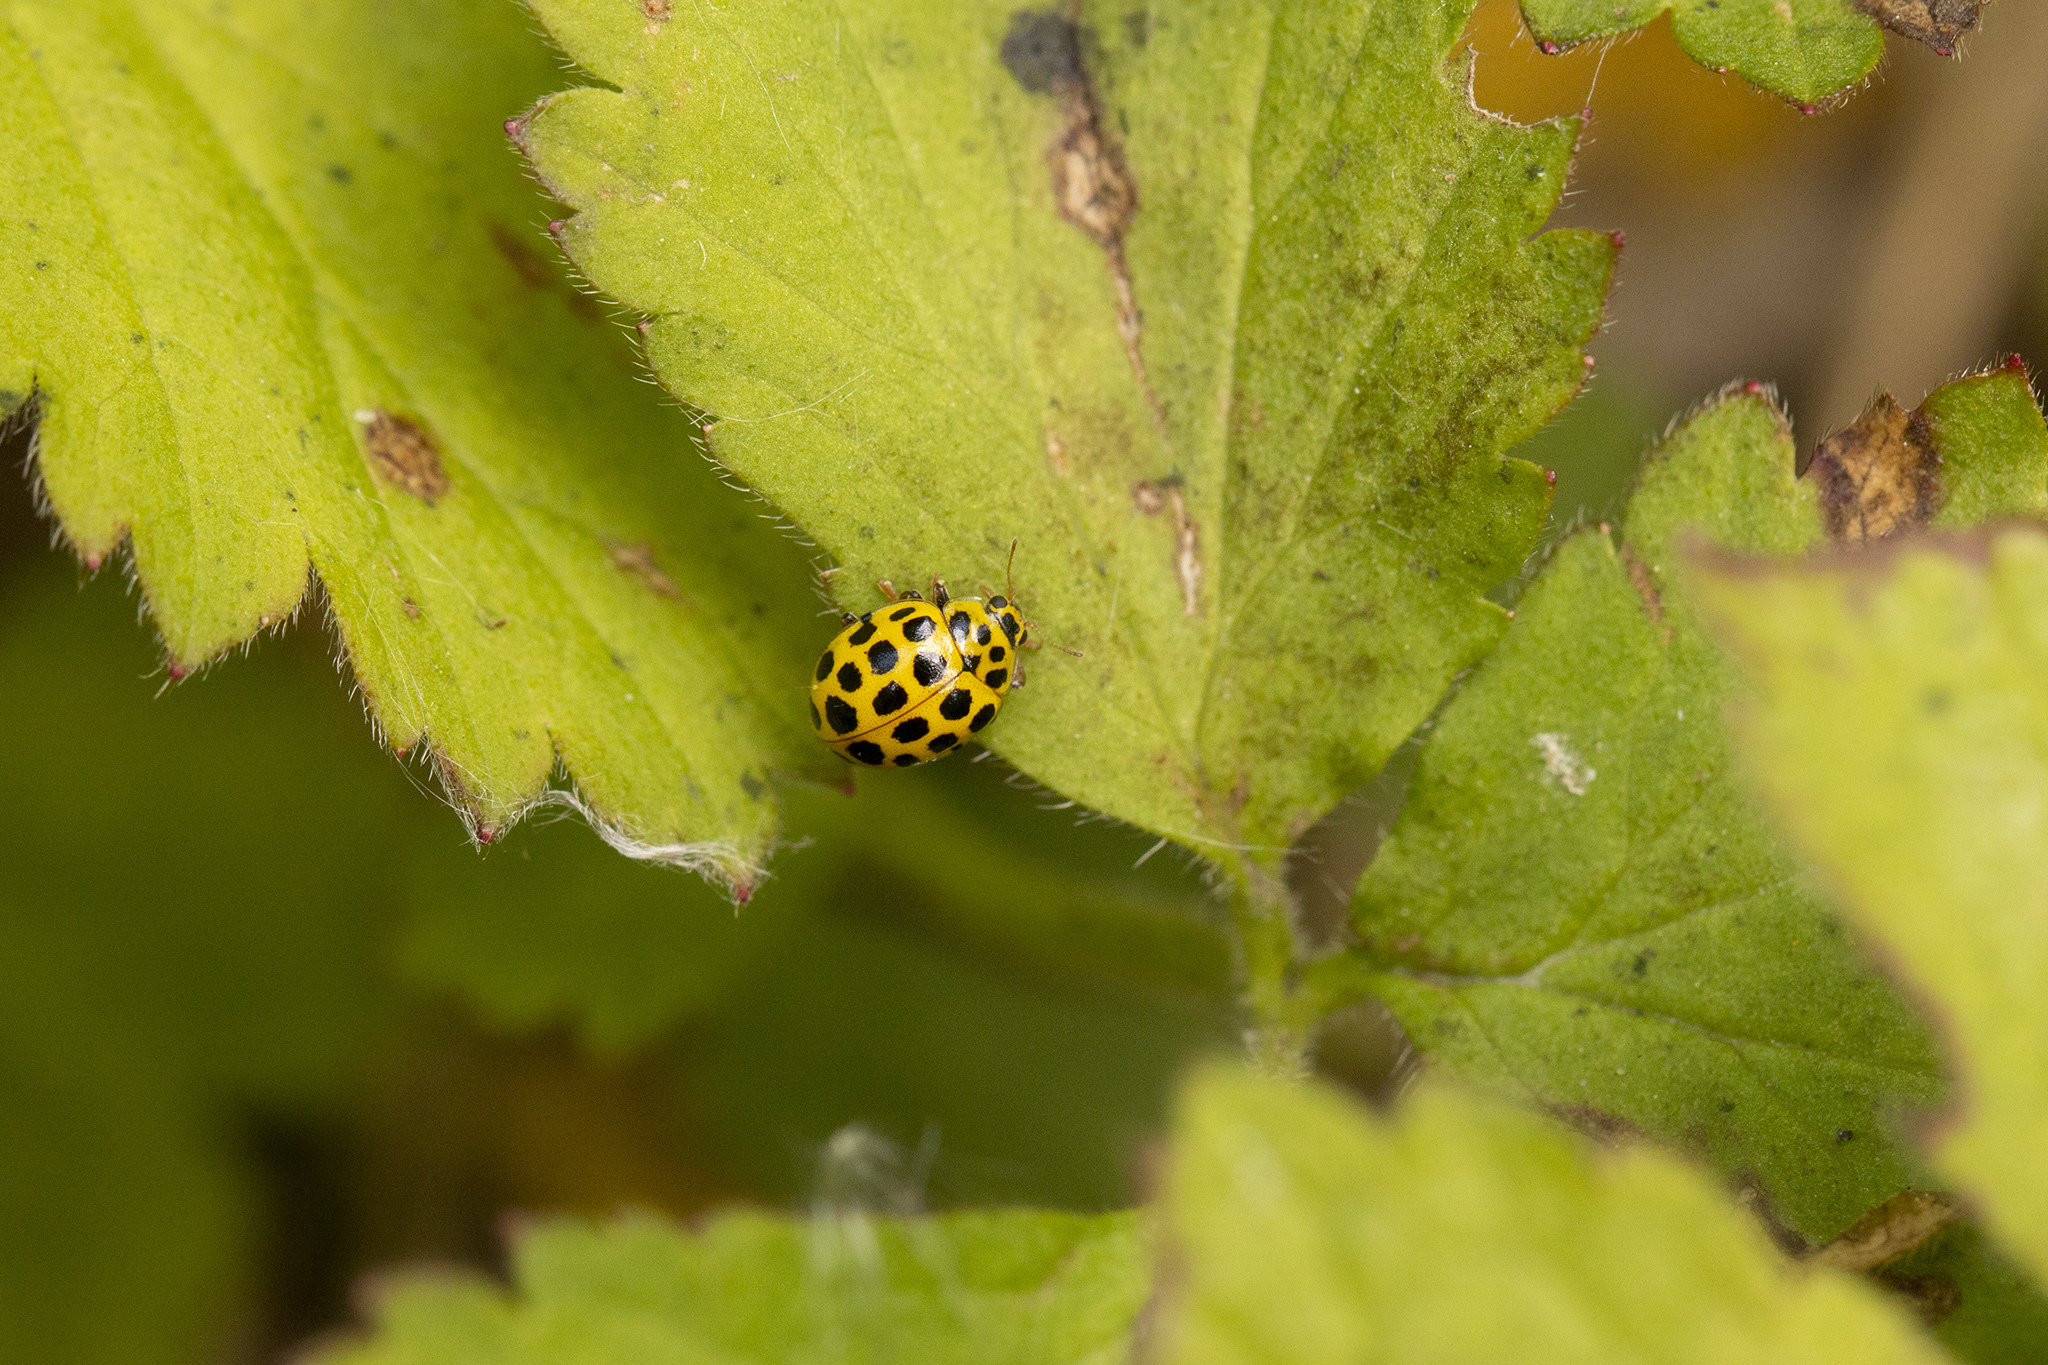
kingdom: Animalia
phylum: Arthropoda
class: Insecta
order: Coleoptera
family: Coccinellidae
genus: Psyllobora
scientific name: Psyllobora vigintiduopunctata
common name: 22-spot ladybird
